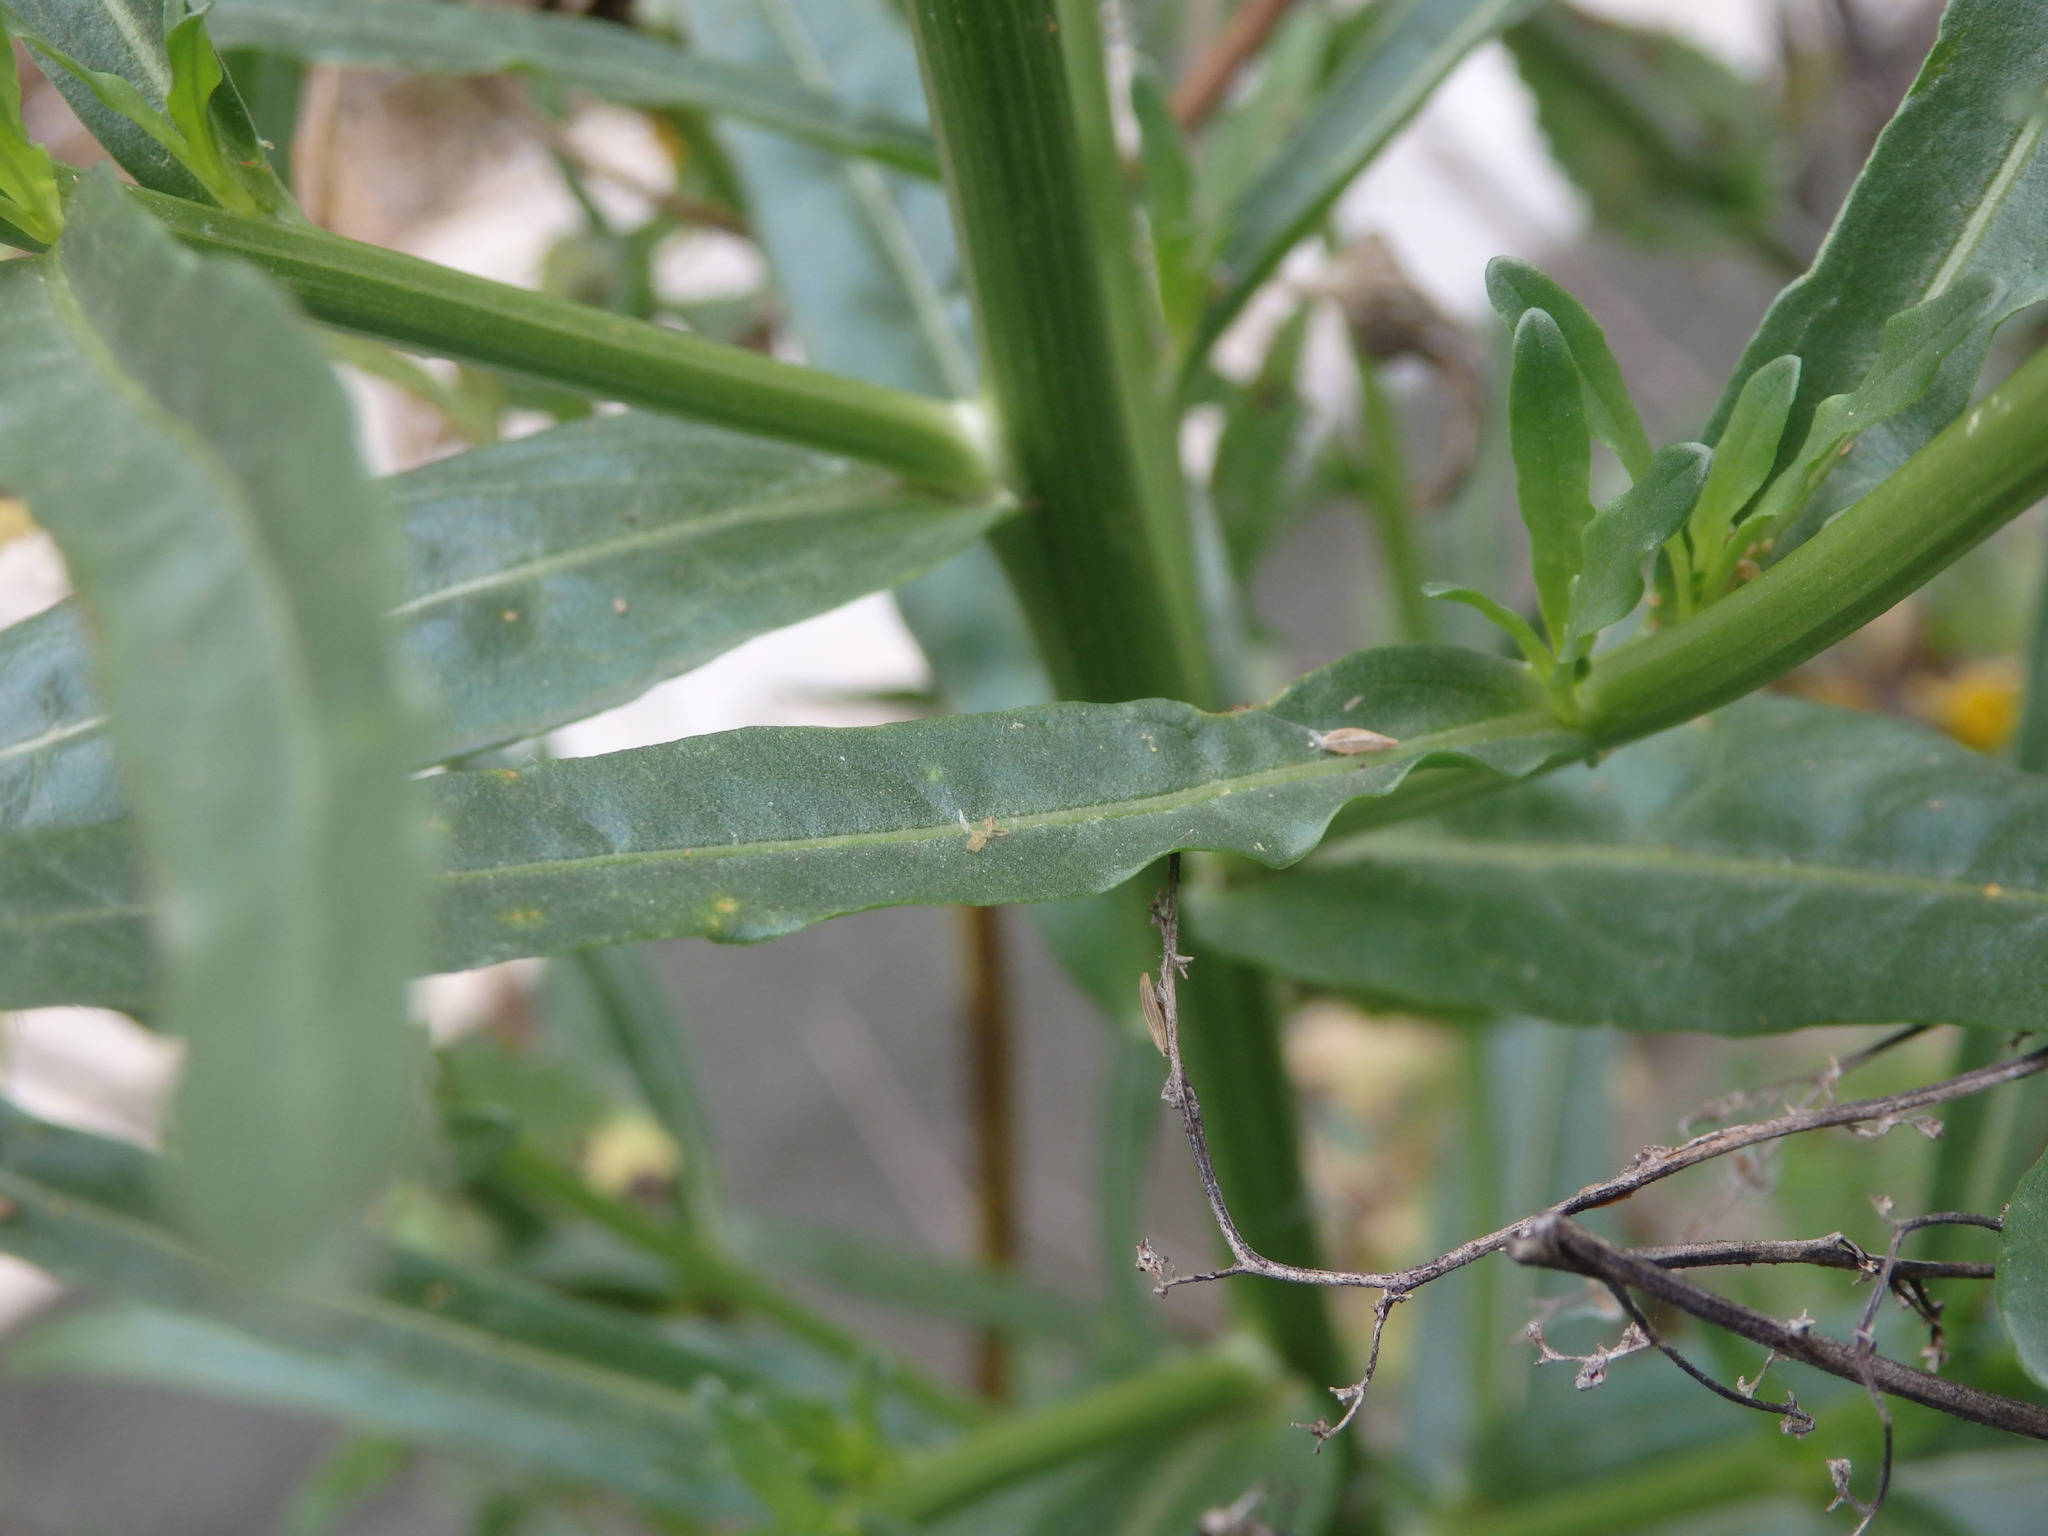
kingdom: Plantae
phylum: Tracheophyta
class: Magnoliopsida
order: Brassicales
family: Resedaceae
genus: Reseda
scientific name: Reseda lutea
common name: Wild mignonette
